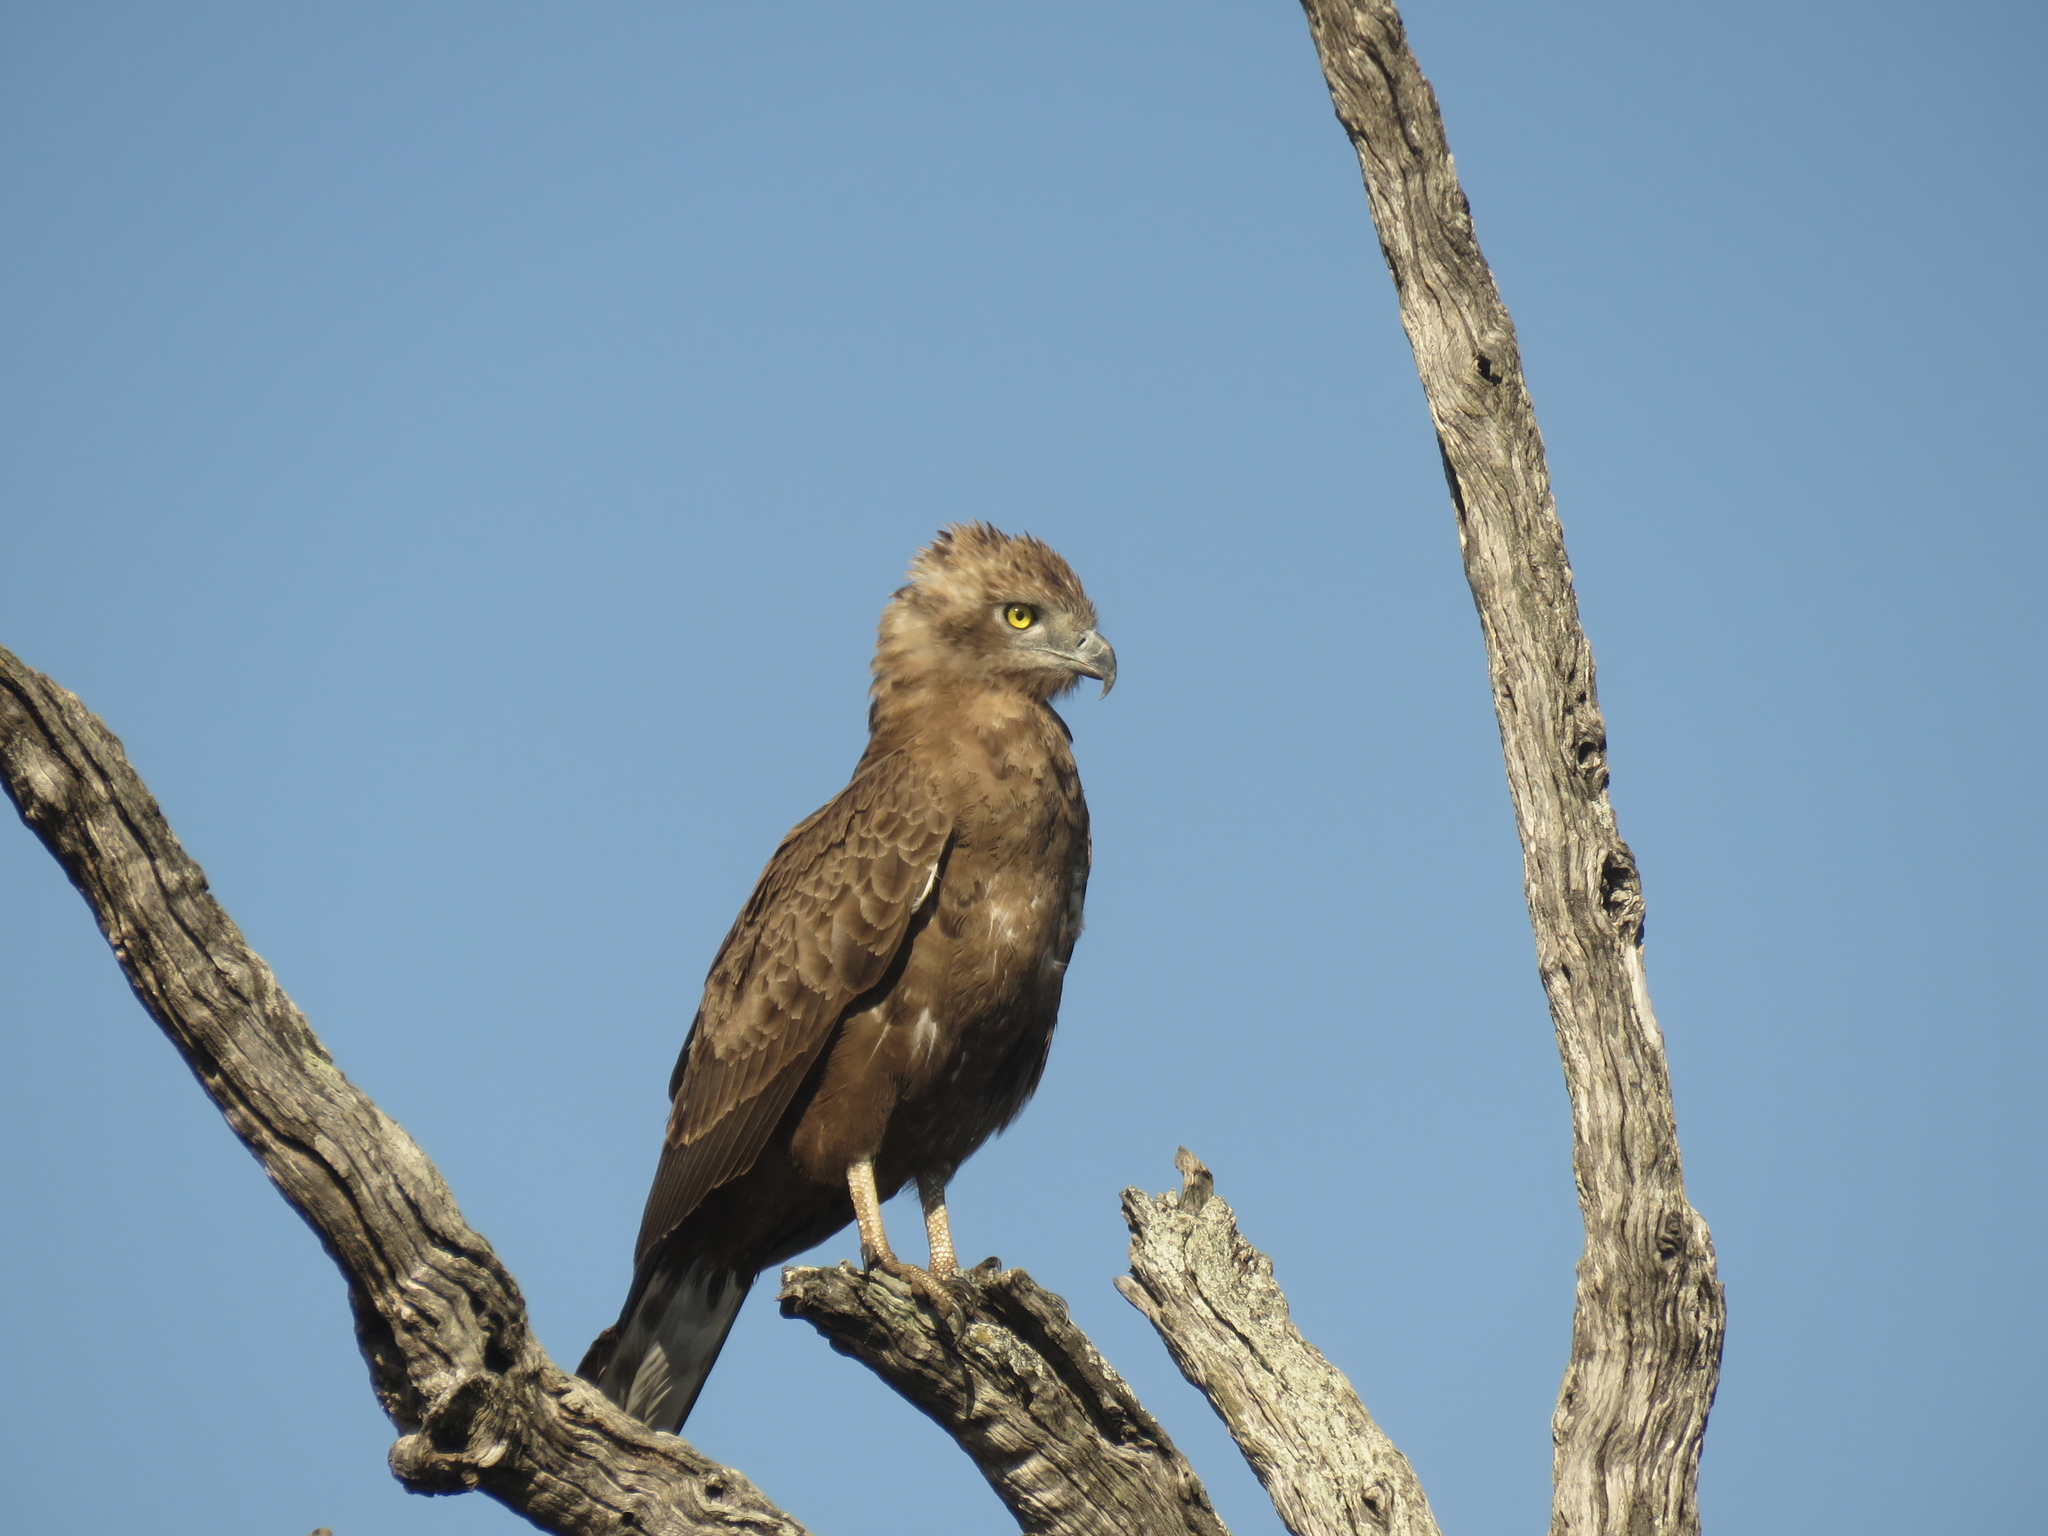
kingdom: Animalia
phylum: Chordata
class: Aves
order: Accipitriformes
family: Accipitridae
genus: Circaetus
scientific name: Circaetus cinereus
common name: Brown snake eagle
